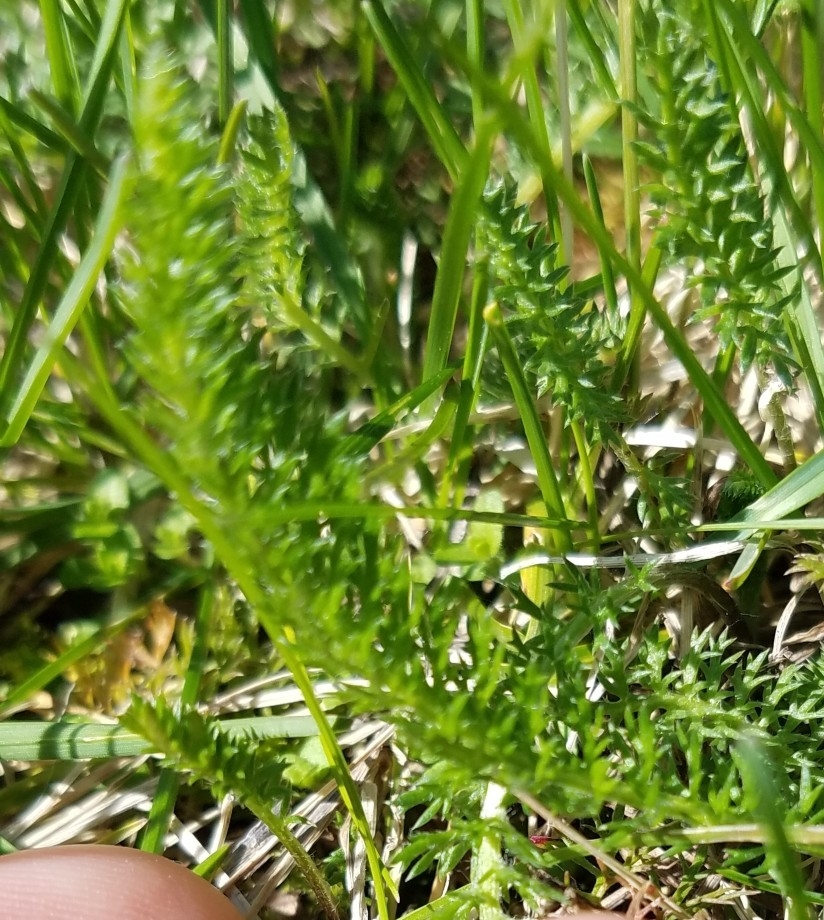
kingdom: Plantae
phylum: Tracheophyta
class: Magnoliopsida
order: Asterales
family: Asteraceae
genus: Achillea
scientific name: Achillea millefolium
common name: Yarrow
